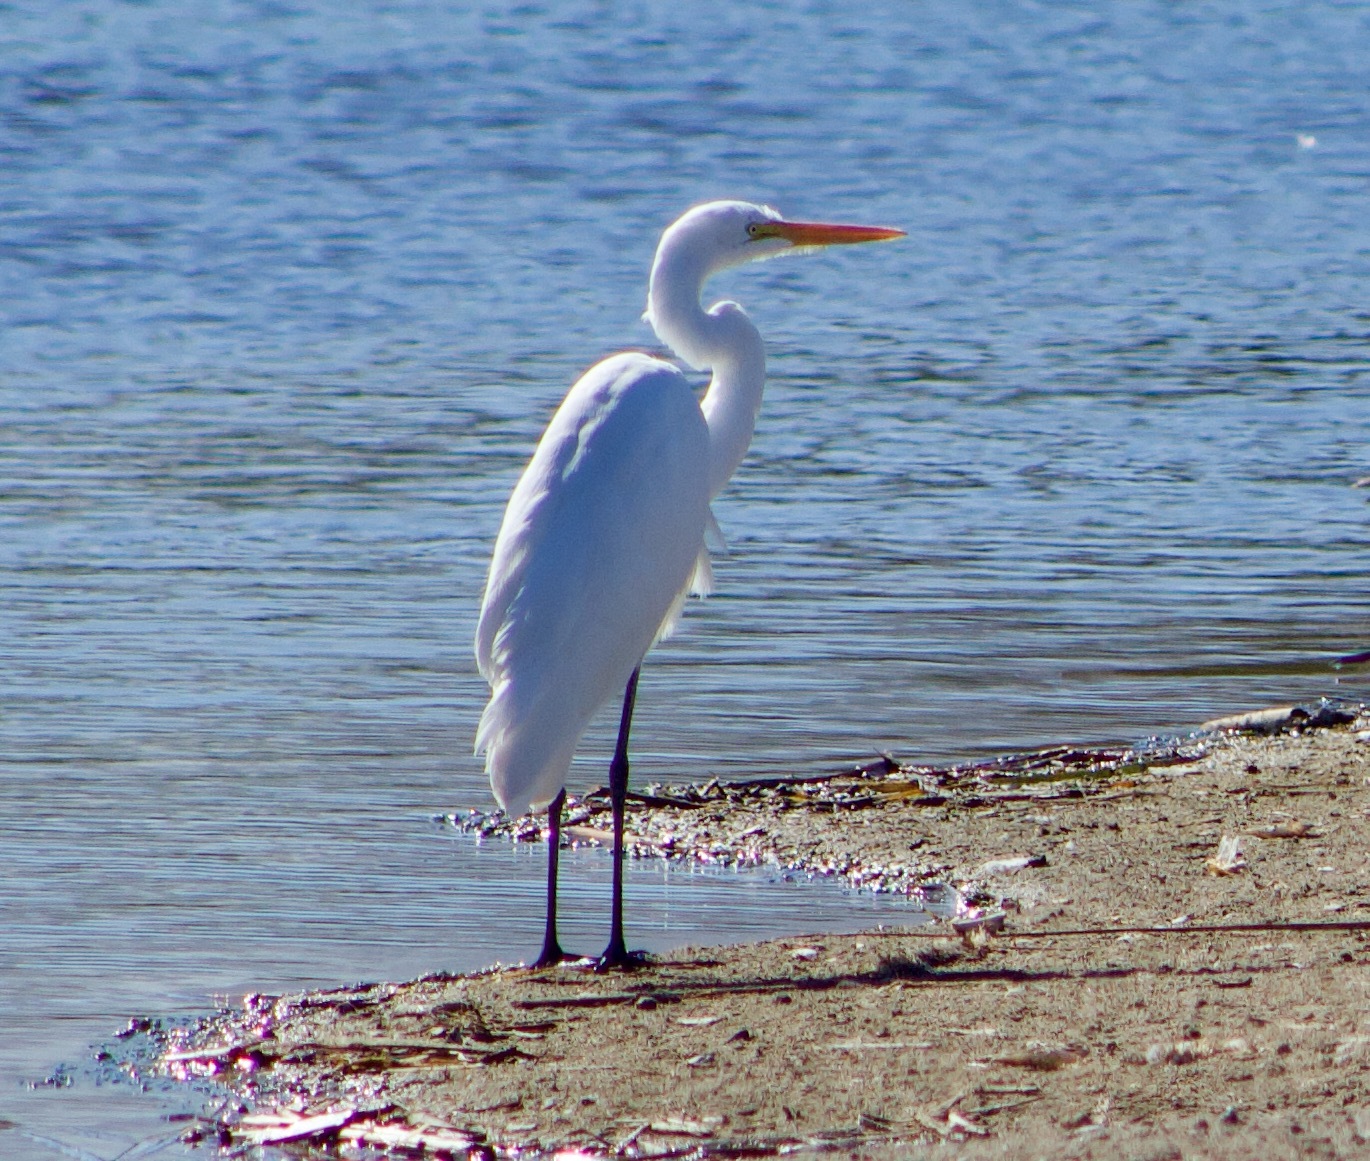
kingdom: Animalia
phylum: Chordata
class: Aves
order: Pelecaniformes
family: Ardeidae
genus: Ardea
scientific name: Ardea alba
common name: Great egret
